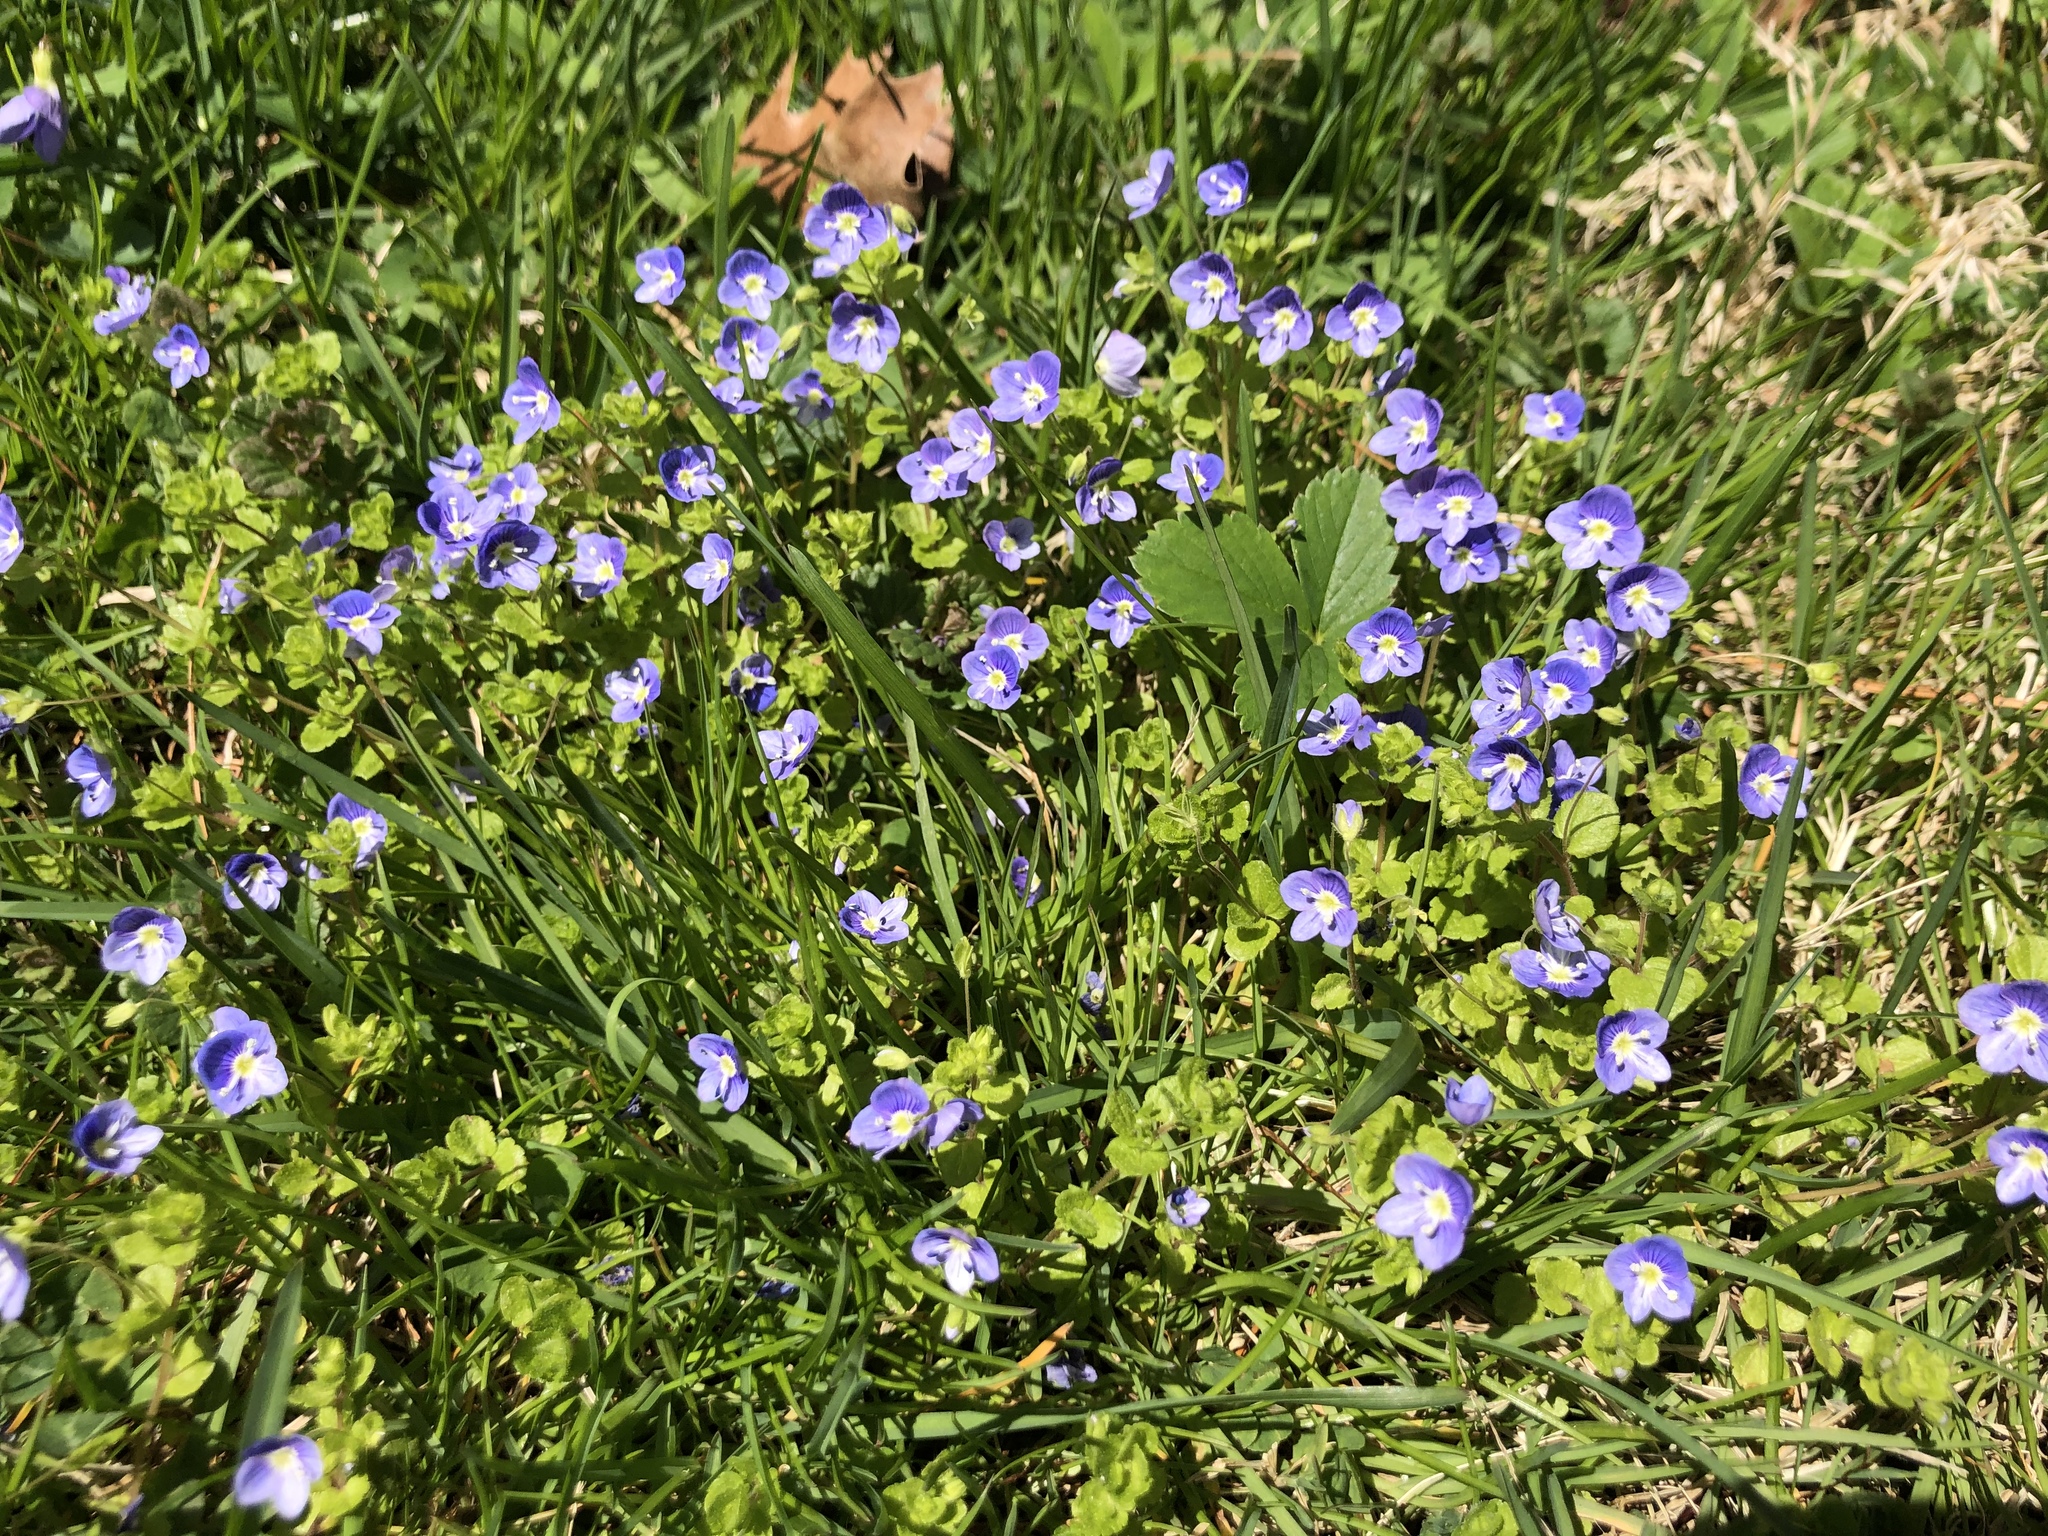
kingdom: Plantae
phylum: Tracheophyta
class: Magnoliopsida
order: Lamiales
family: Plantaginaceae
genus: Veronica
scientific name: Veronica filiformis
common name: Slender speedwell
